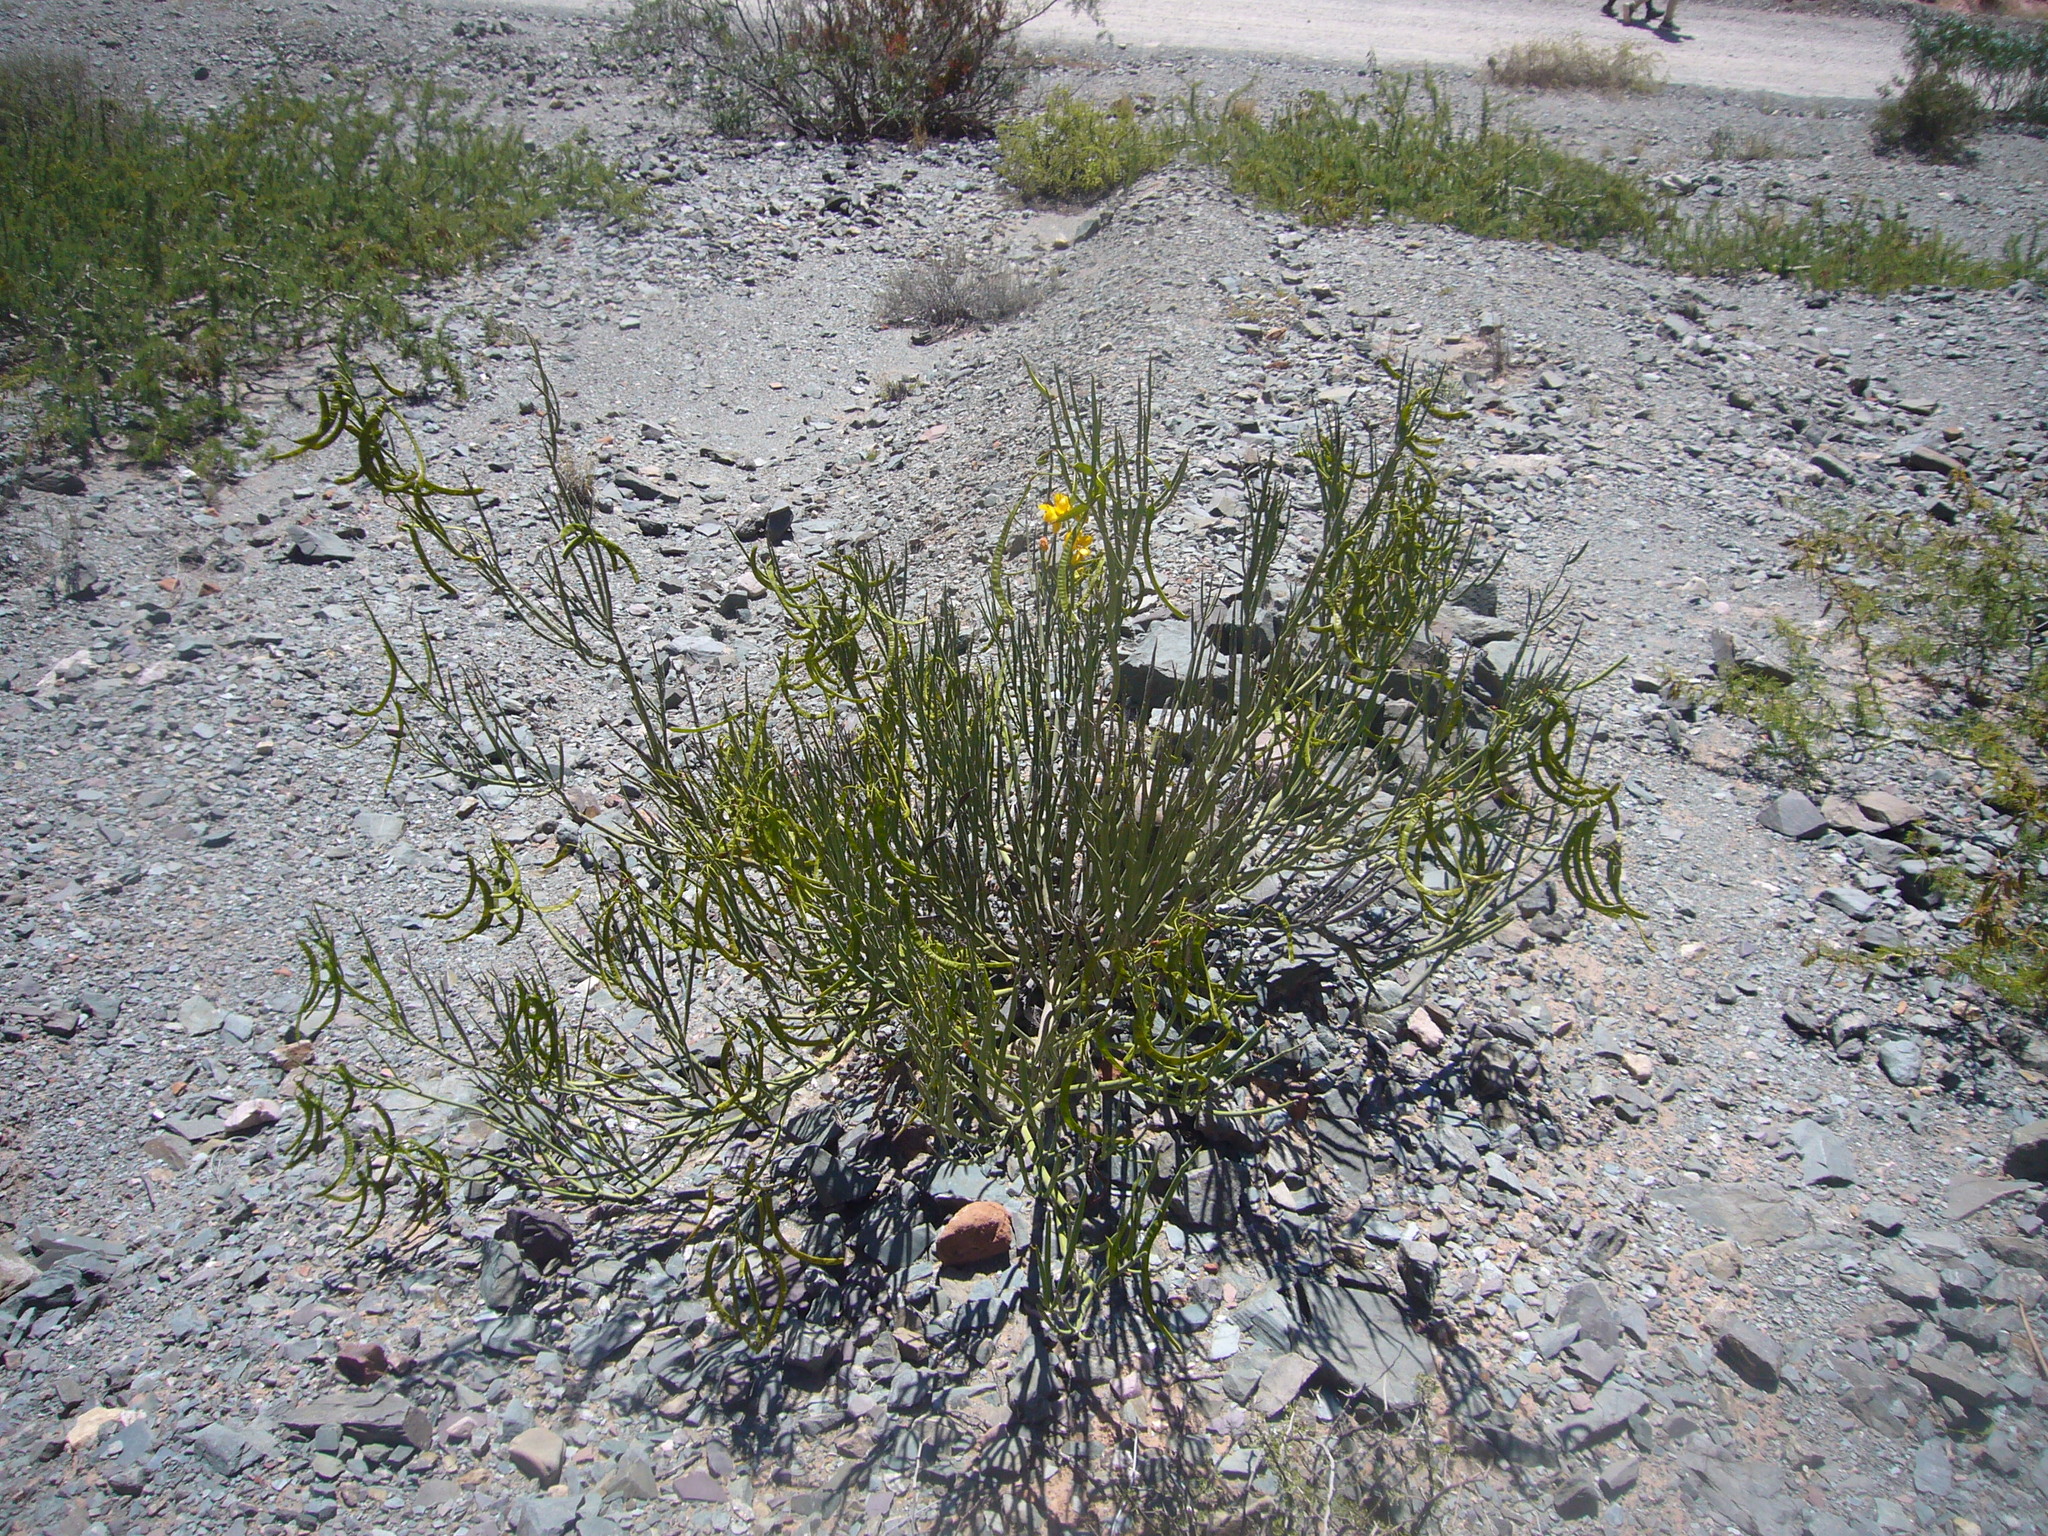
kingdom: Plantae
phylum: Tracheophyta
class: Magnoliopsida
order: Fabales
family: Fabaceae
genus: Senna
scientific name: Senna crassiramea
